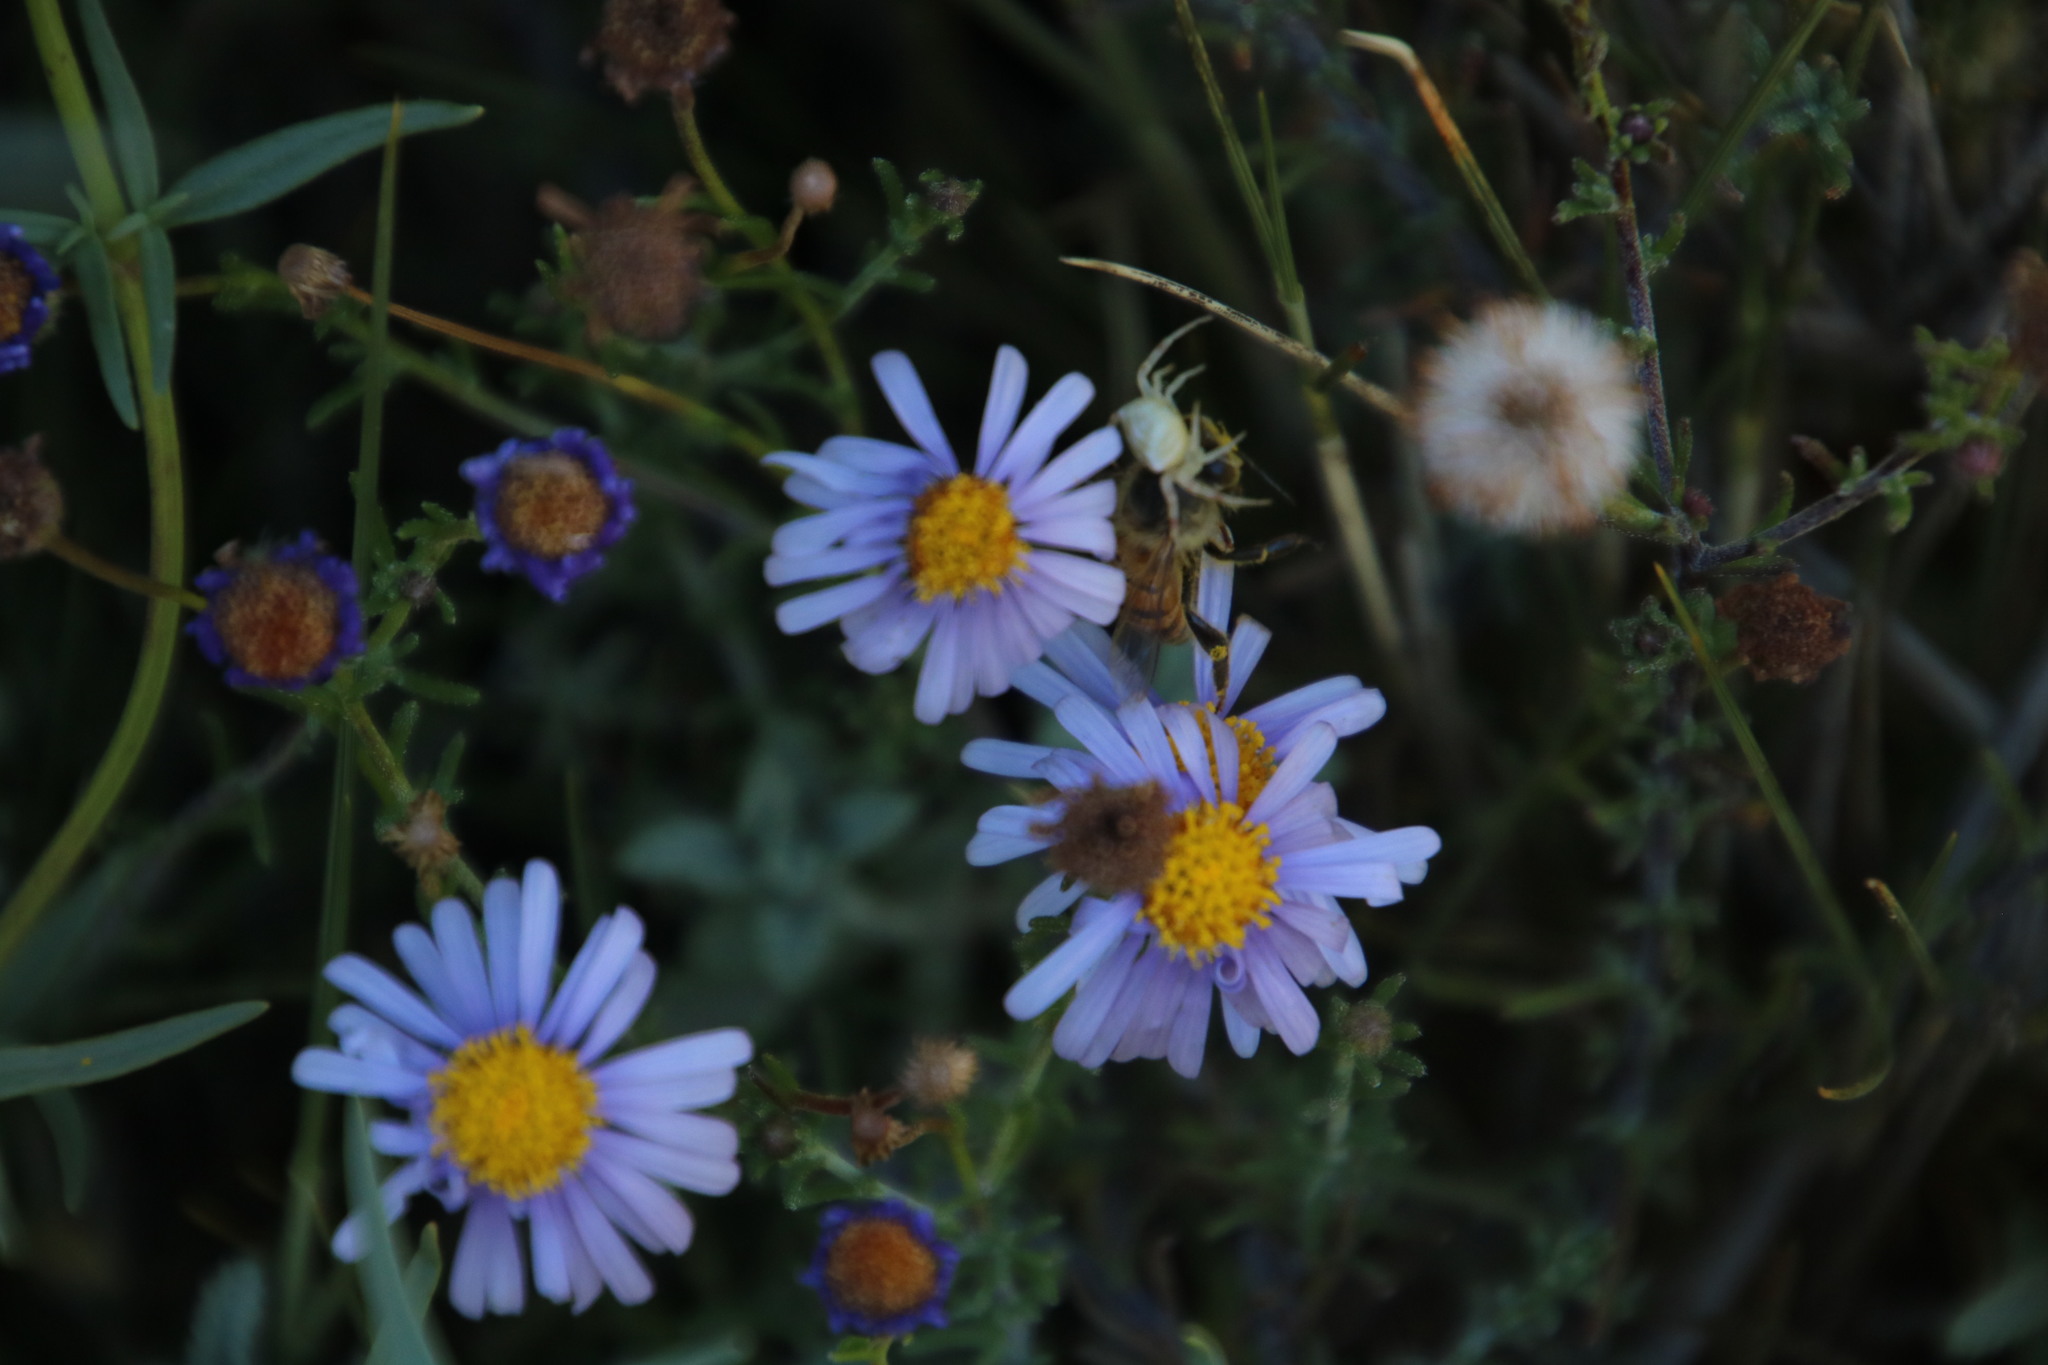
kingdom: Animalia
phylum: Arthropoda
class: Insecta
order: Hymenoptera
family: Apidae
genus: Apis
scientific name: Apis mellifera
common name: Honey bee
